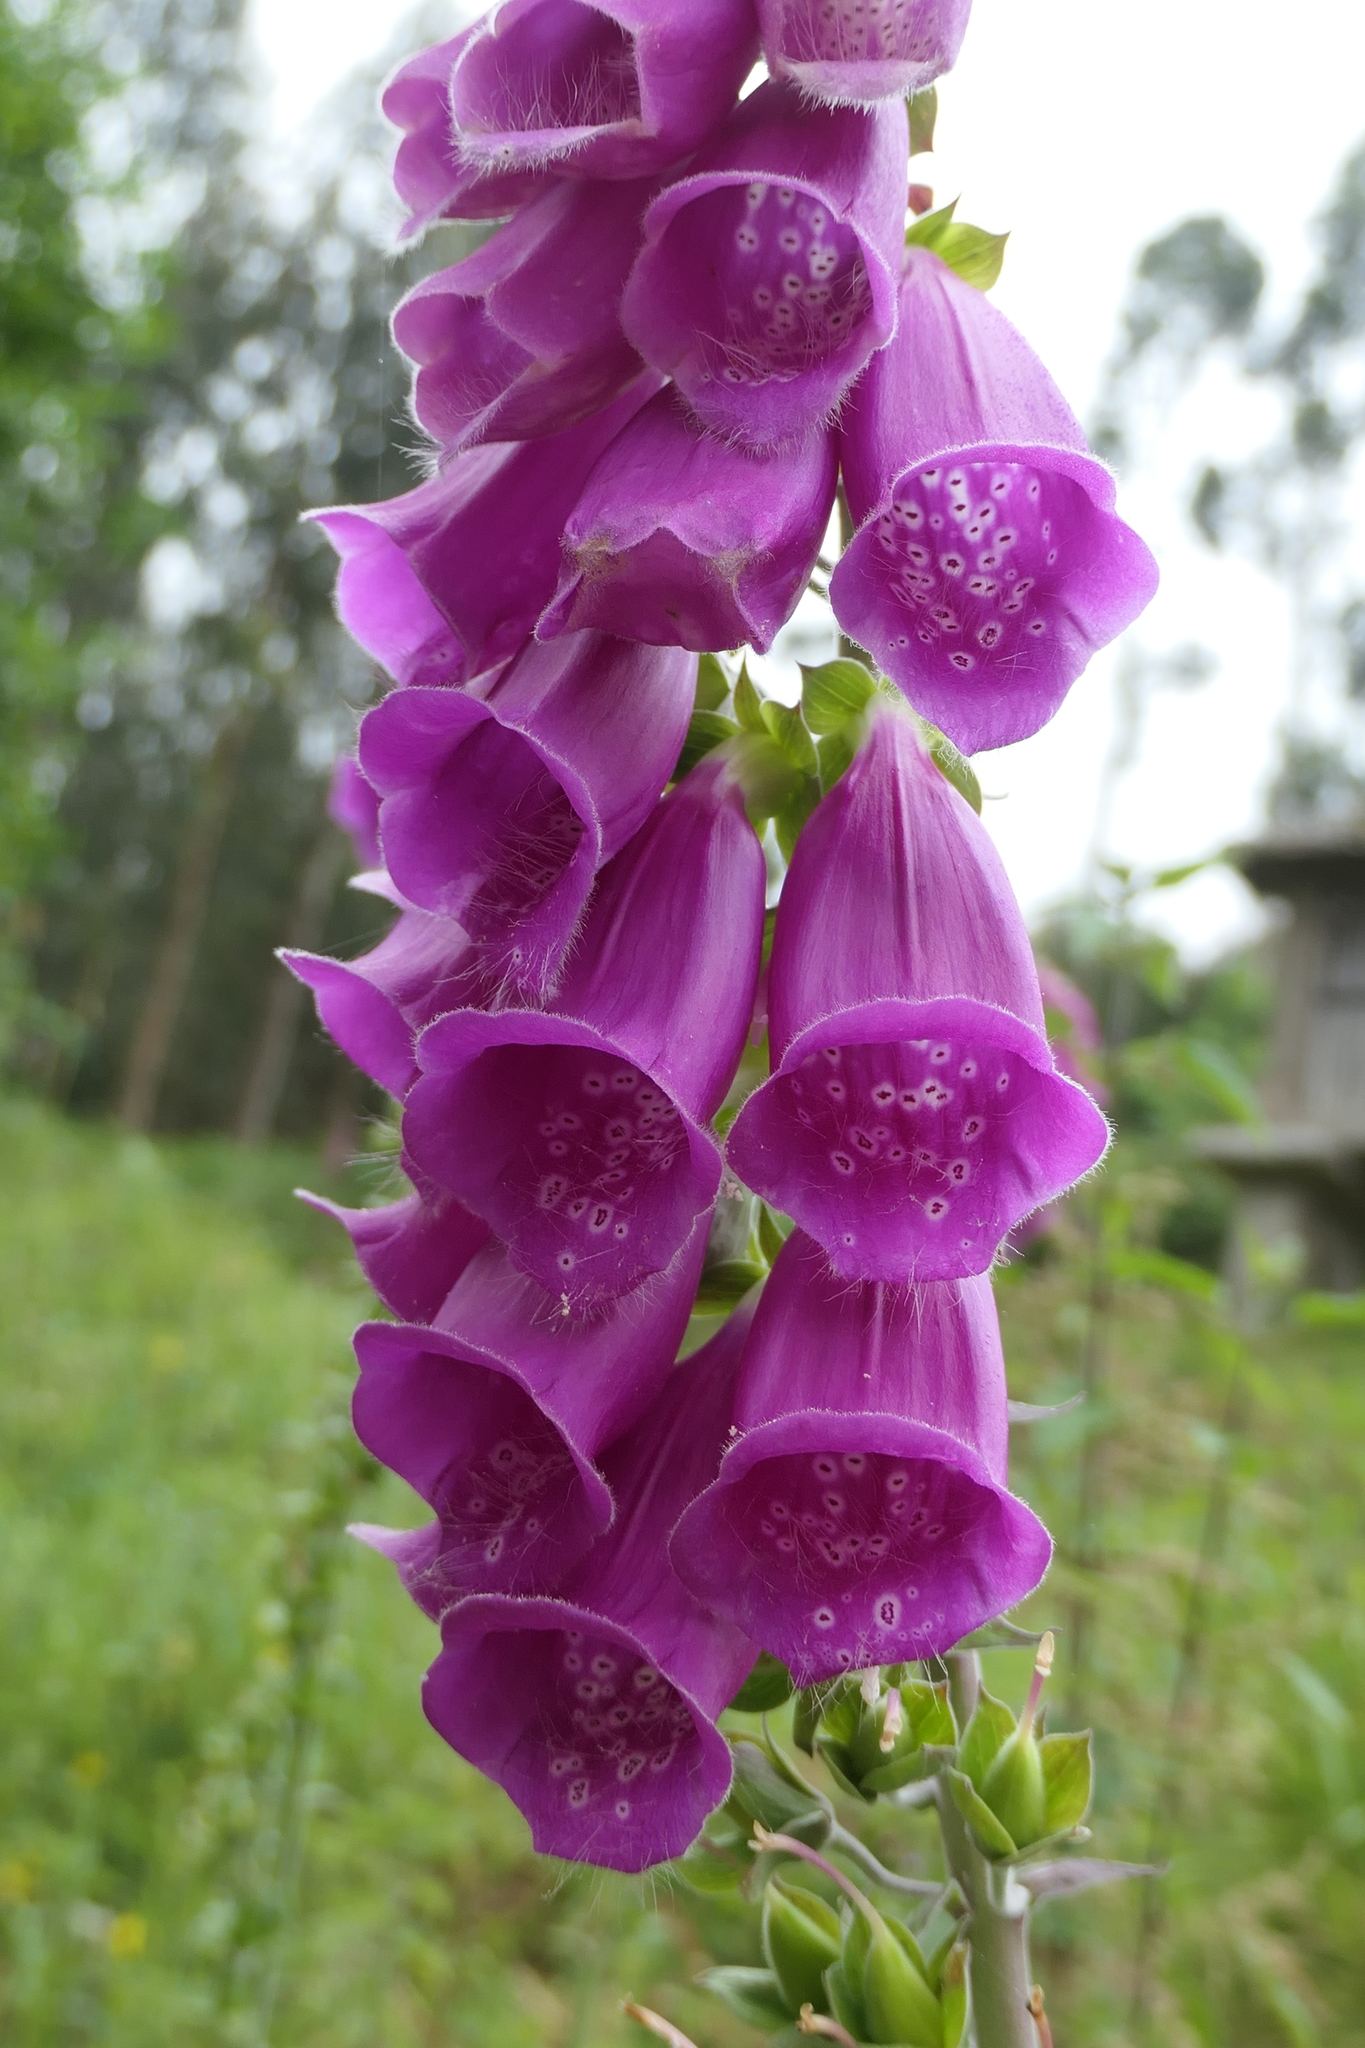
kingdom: Plantae
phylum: Tracheophyta
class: Magnoliopsida
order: Lamiales
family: Plantaginaceae
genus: Digitalis
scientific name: Digitalis purpurea
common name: Foxglove
